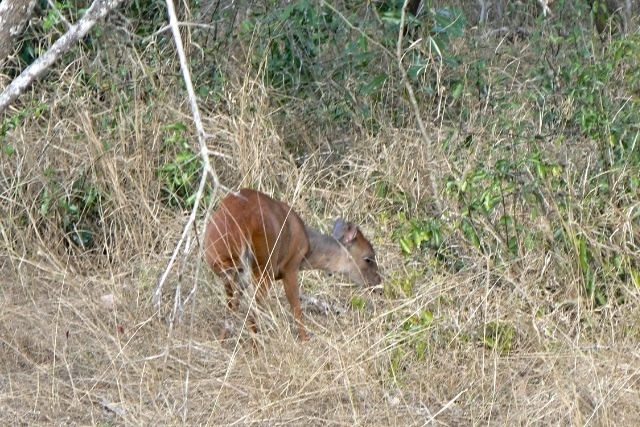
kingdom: Animalia
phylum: Chordata
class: Mammalia
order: Artiodactyla
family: Bovidae
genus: Cephalophus
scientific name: Cephalophus natalensis
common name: Red duiker
